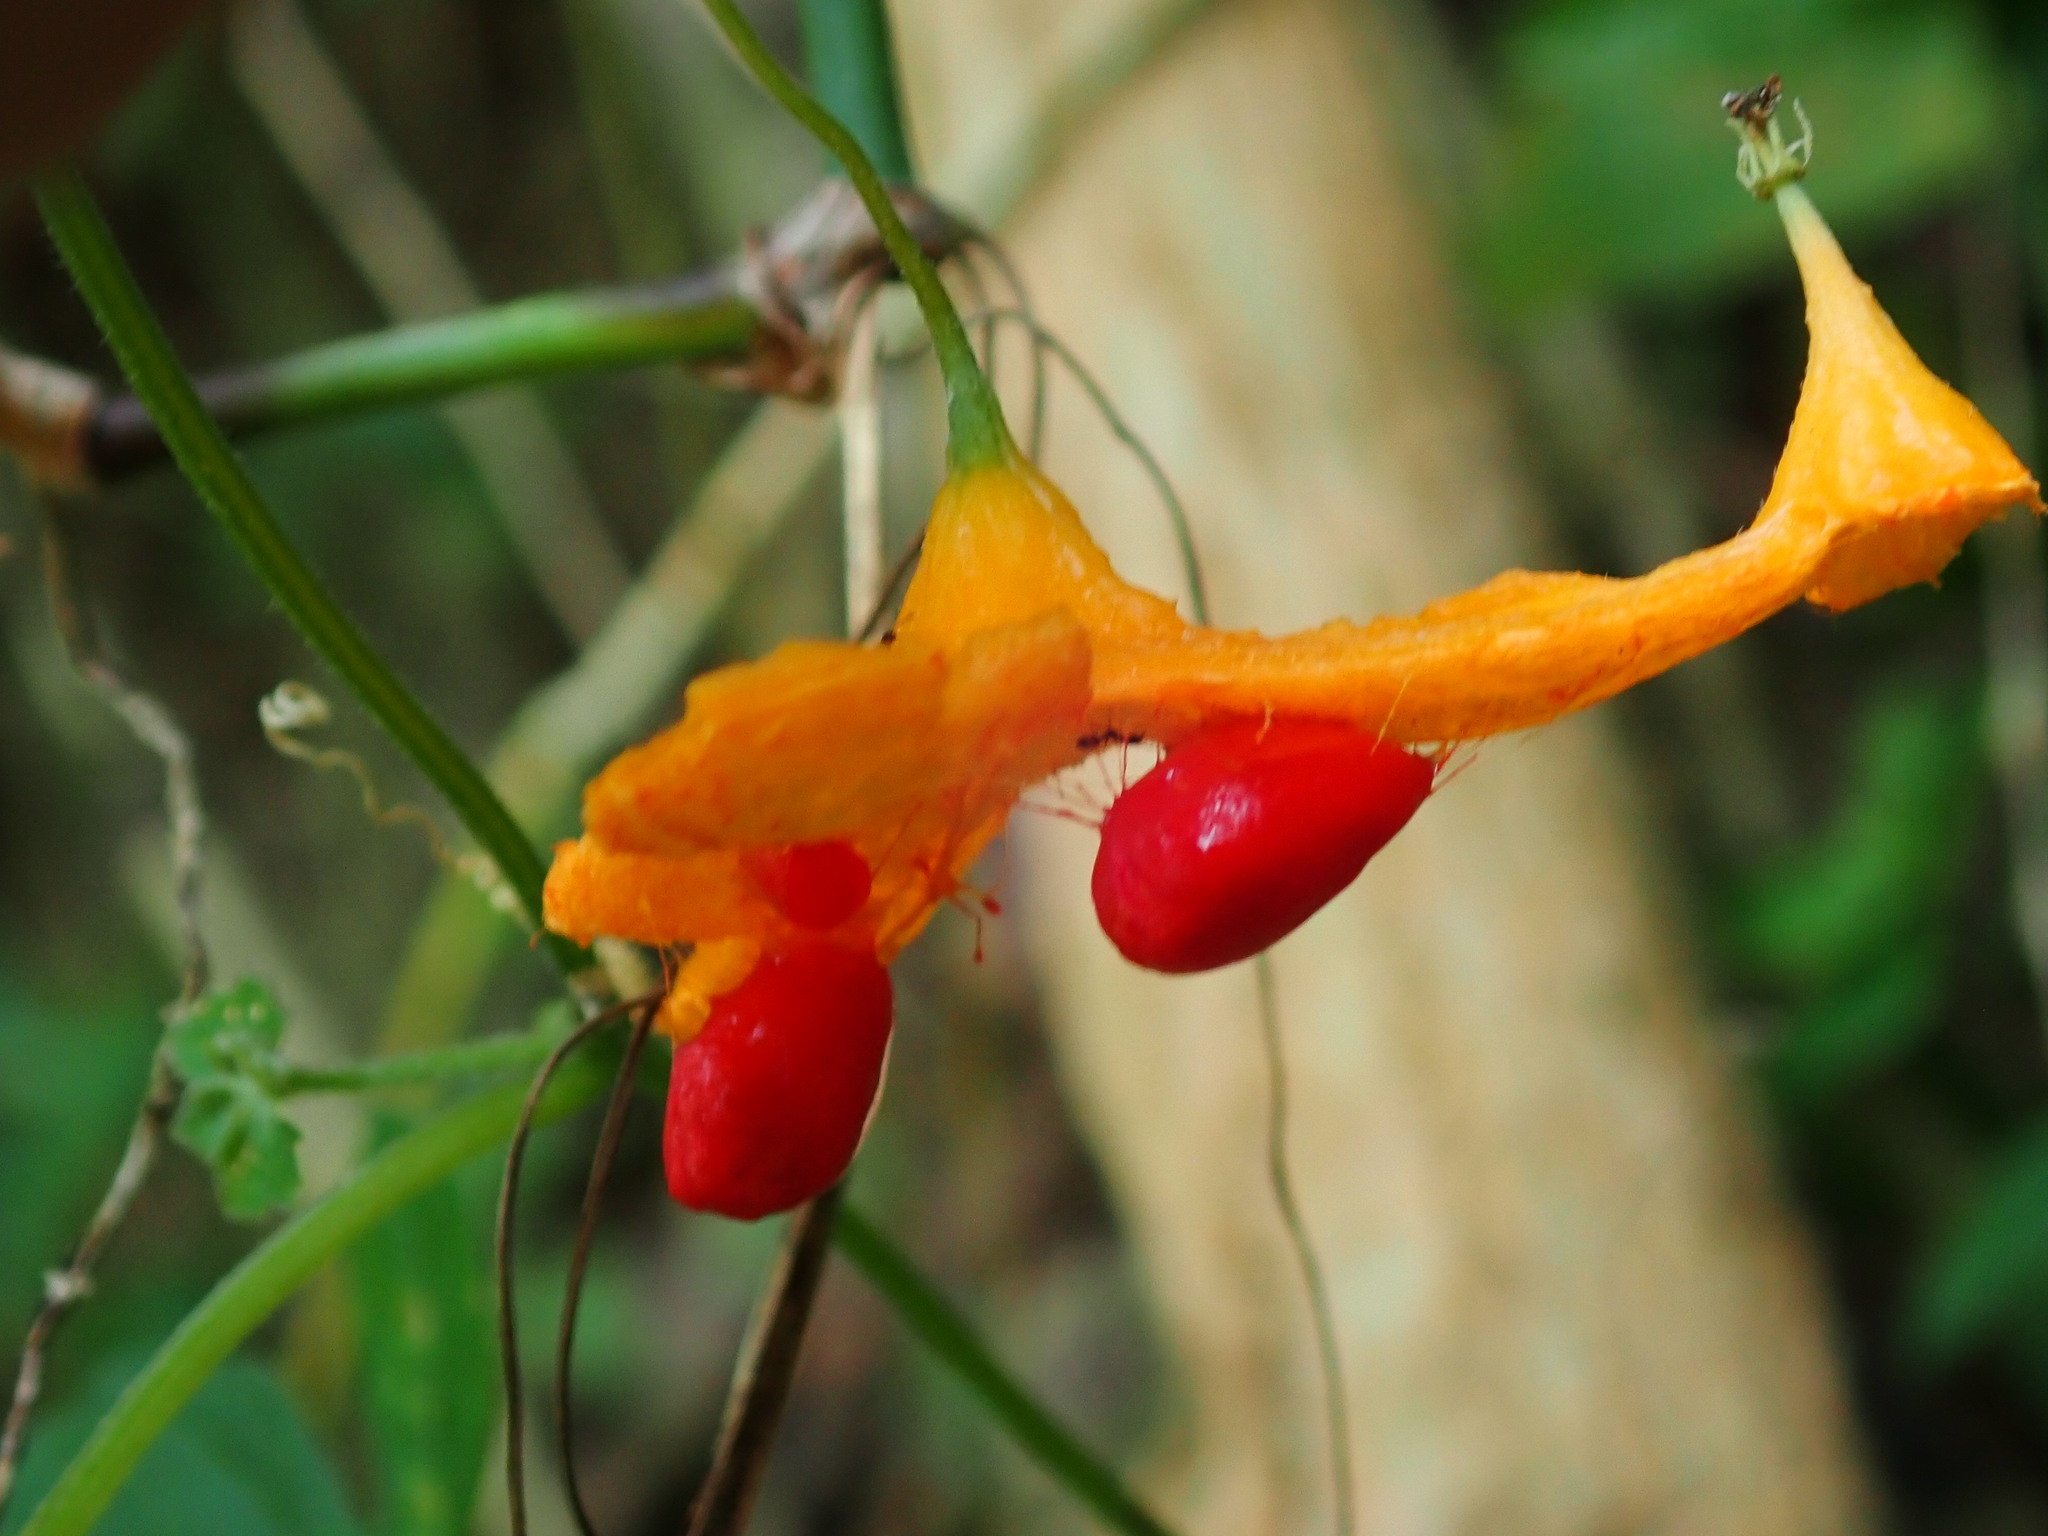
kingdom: Plantae
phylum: Tracheophyta
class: Magnoliopsida
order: Cucurbitales
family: Cucurbitaceae
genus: Momordica
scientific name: Momordica charantia
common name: Balsampear
